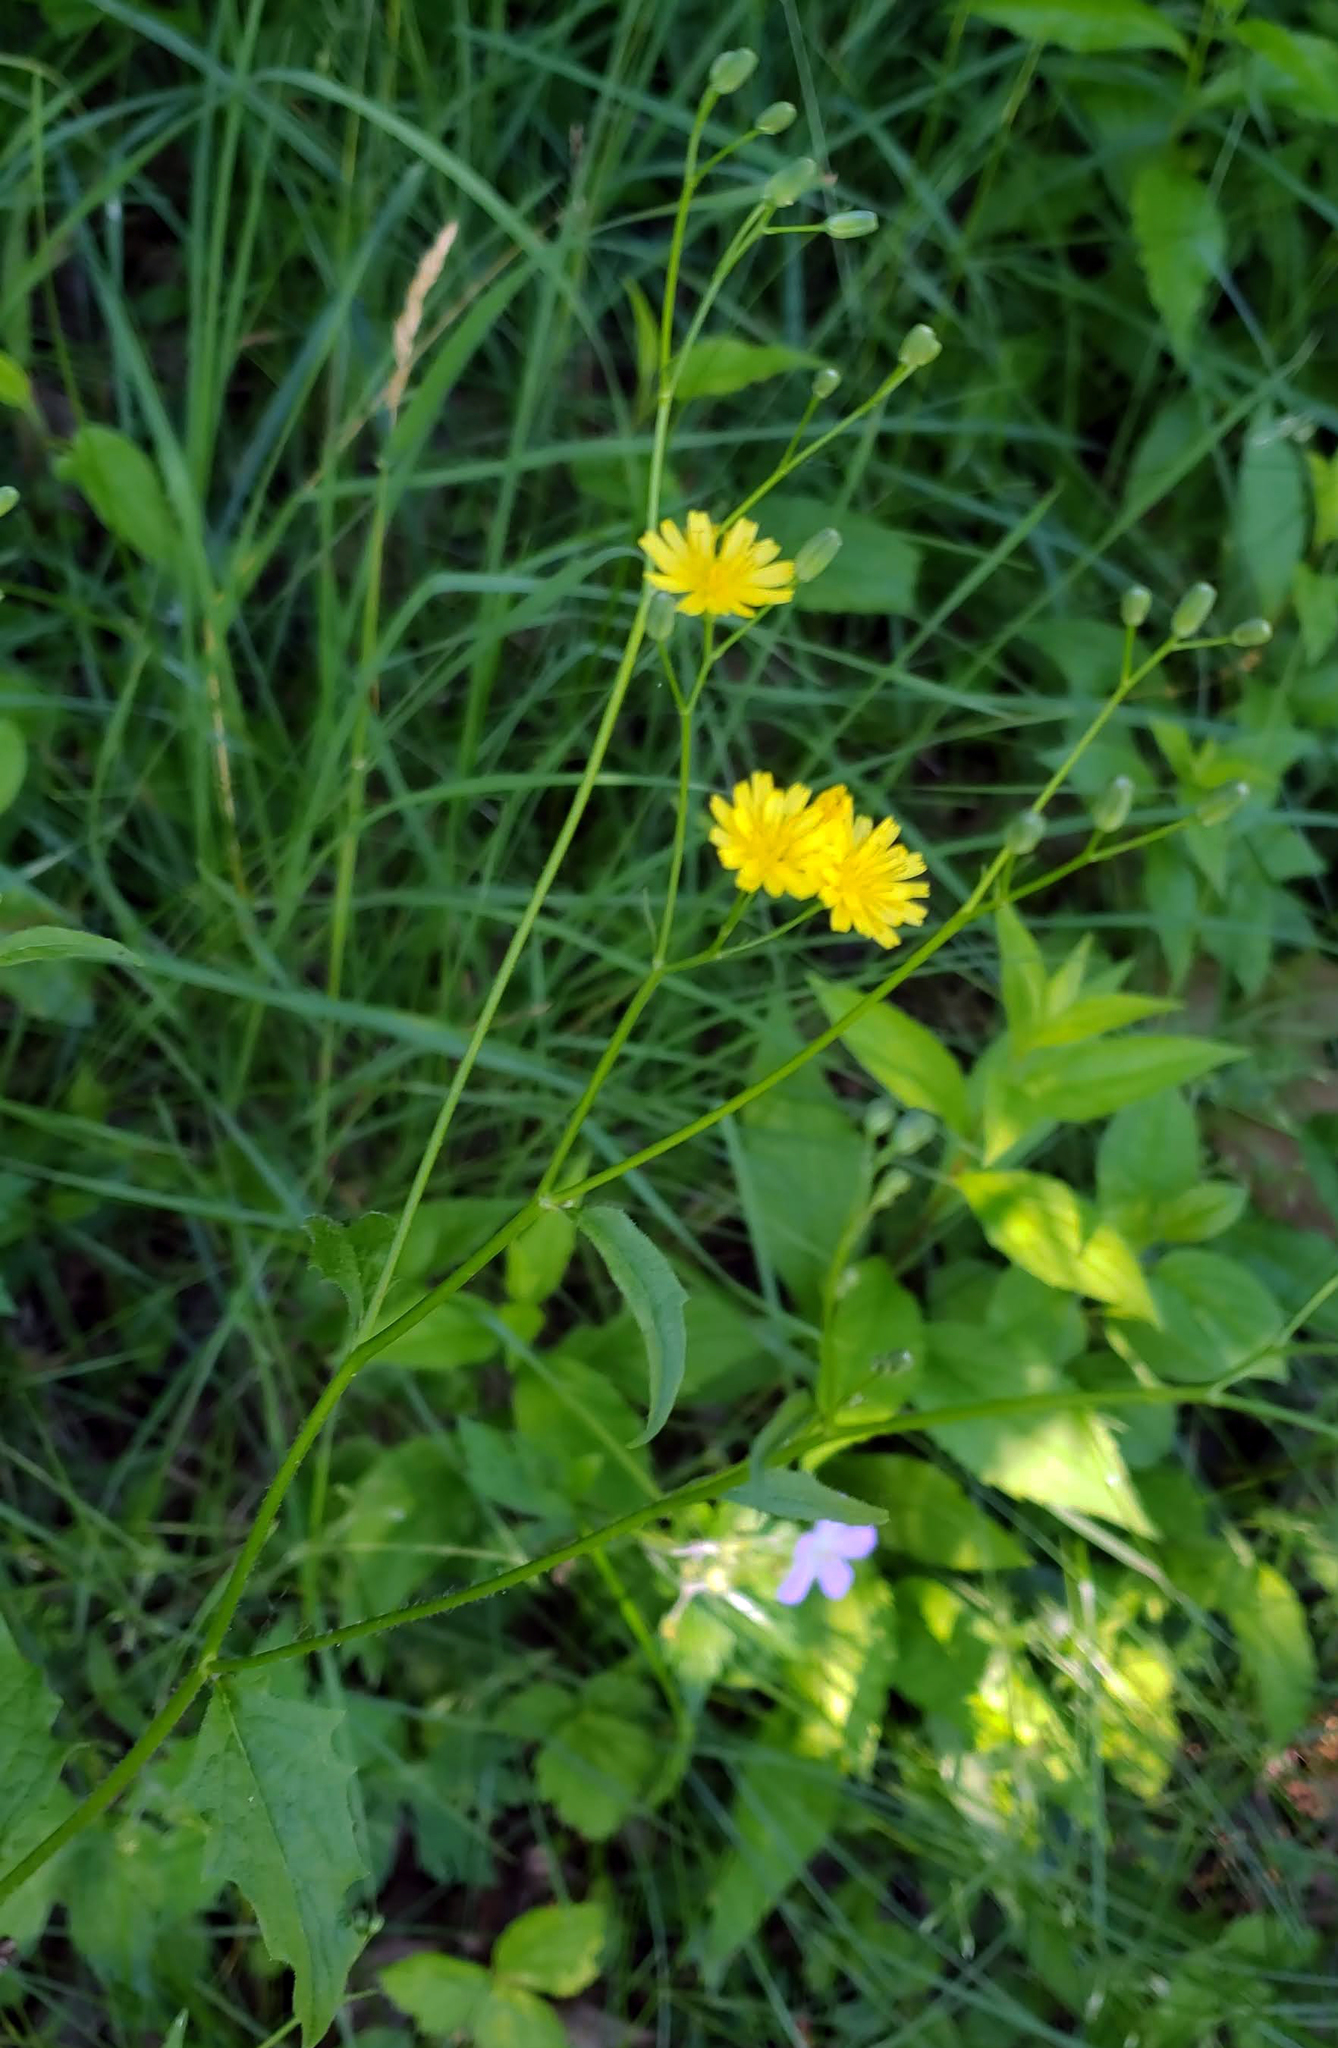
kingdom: Plantae
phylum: Tracheophyta
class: Magnoliopsida
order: Asterales
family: Asteraceae
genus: Lapsana
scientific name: Lapsana communis
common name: Nipplewort
